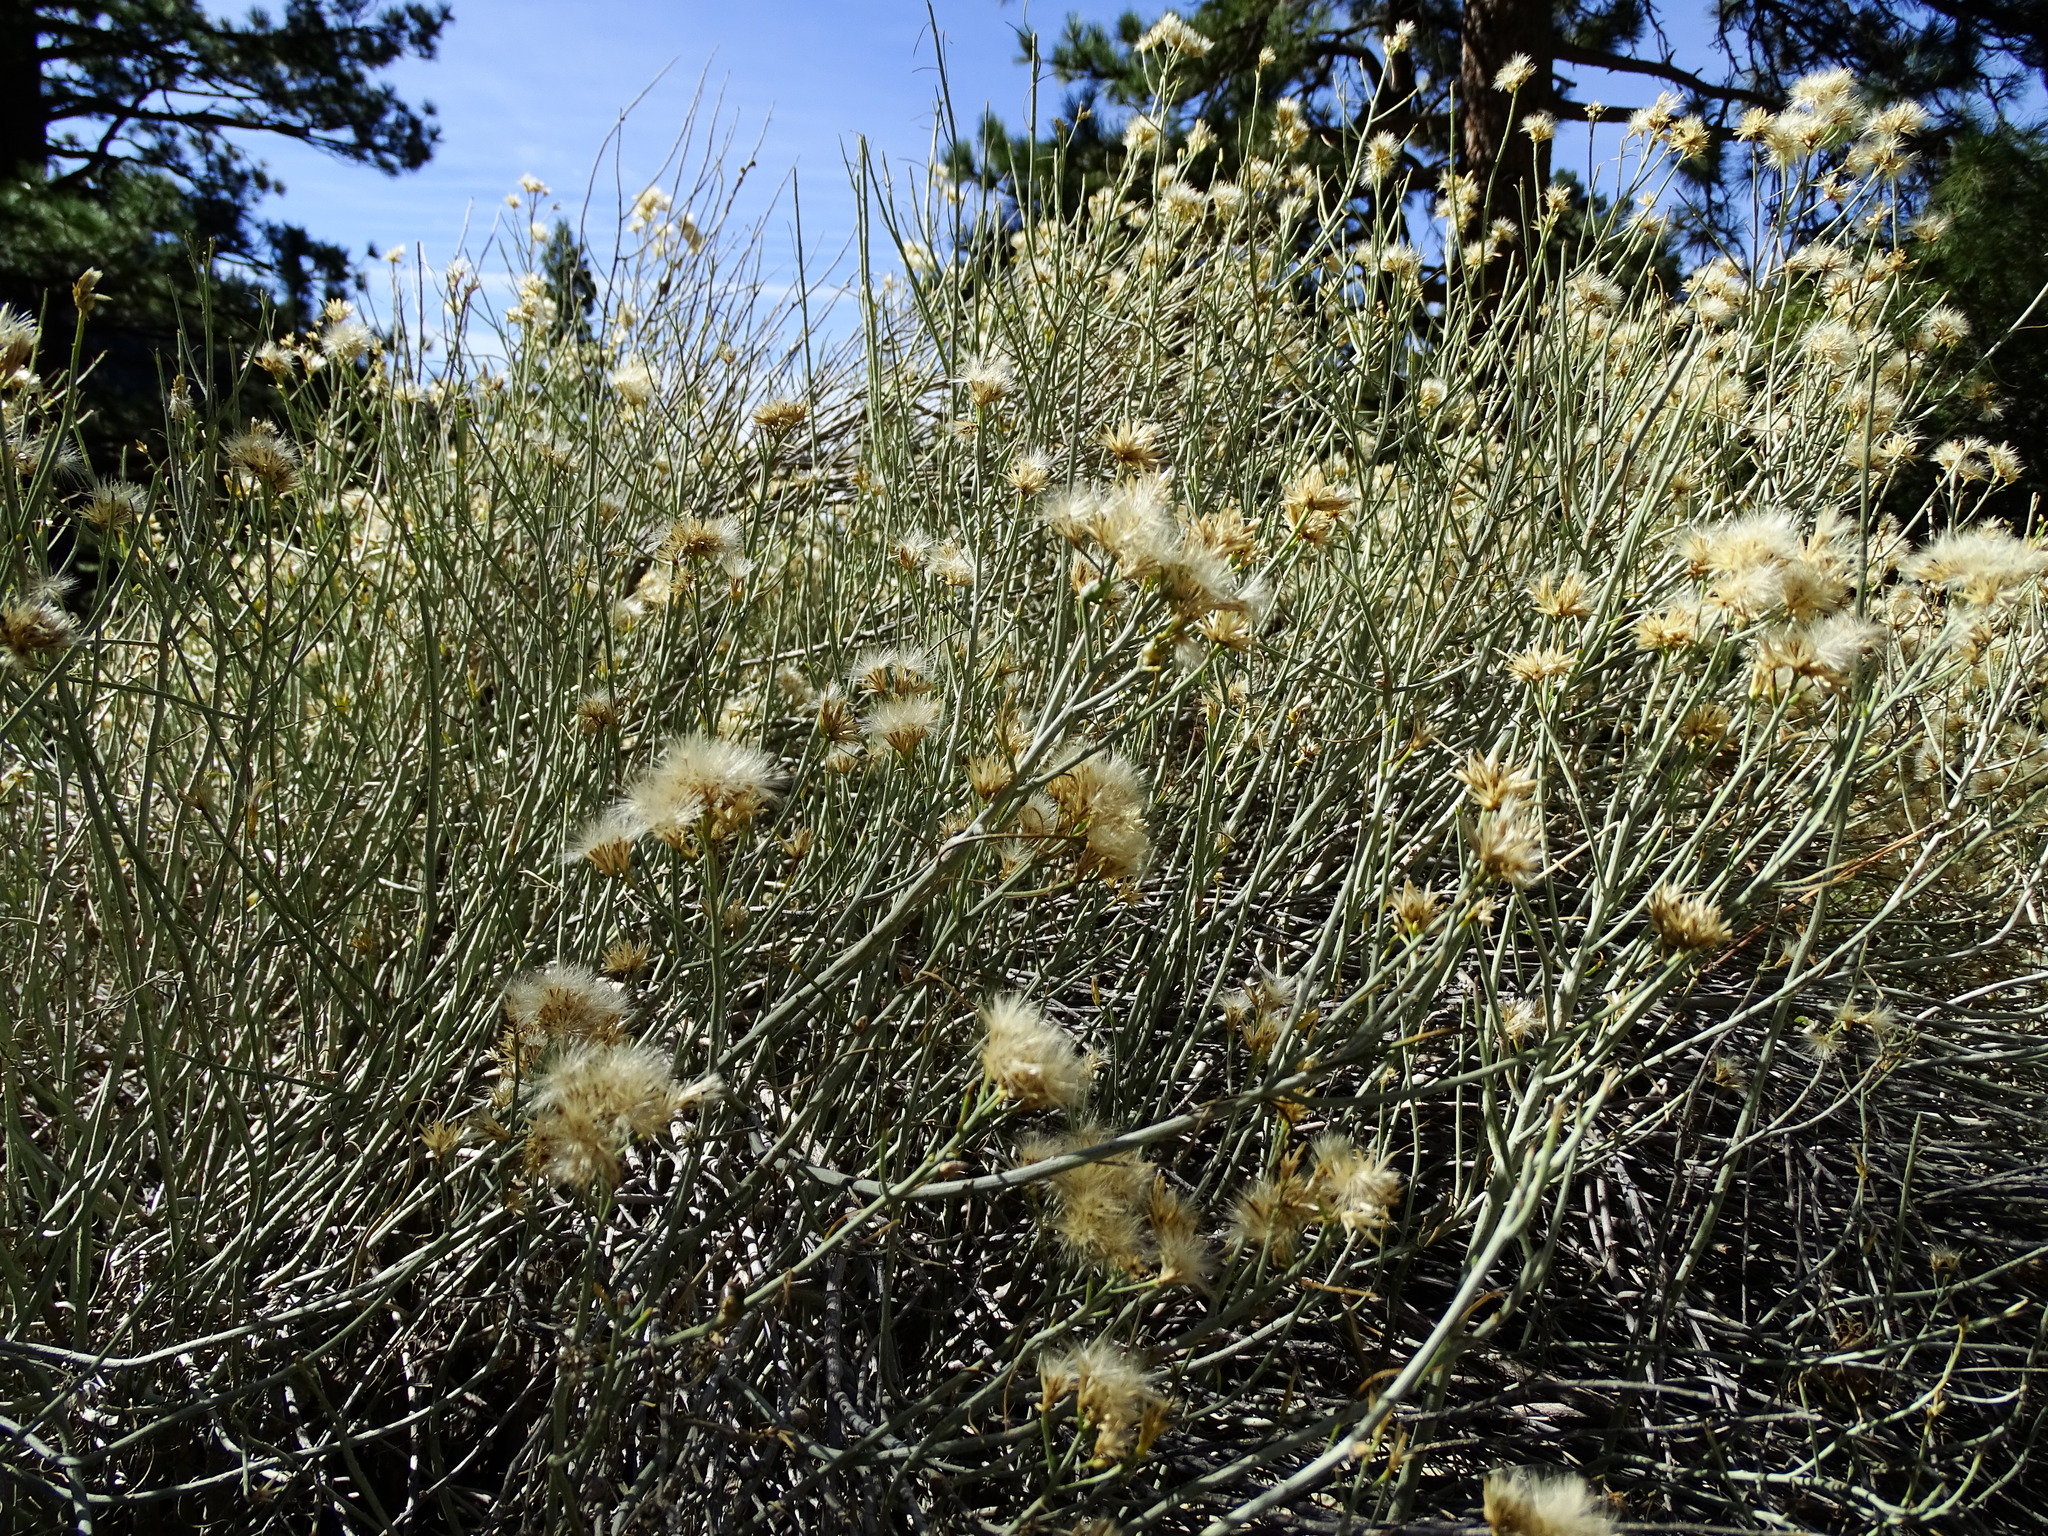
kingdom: Plantae
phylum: Tracheophyta
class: Magnoliopsida
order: Asterales
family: Asteraceae
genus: Ericameria
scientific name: Ericameria nauseosa
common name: Rubber rabbitbrush
